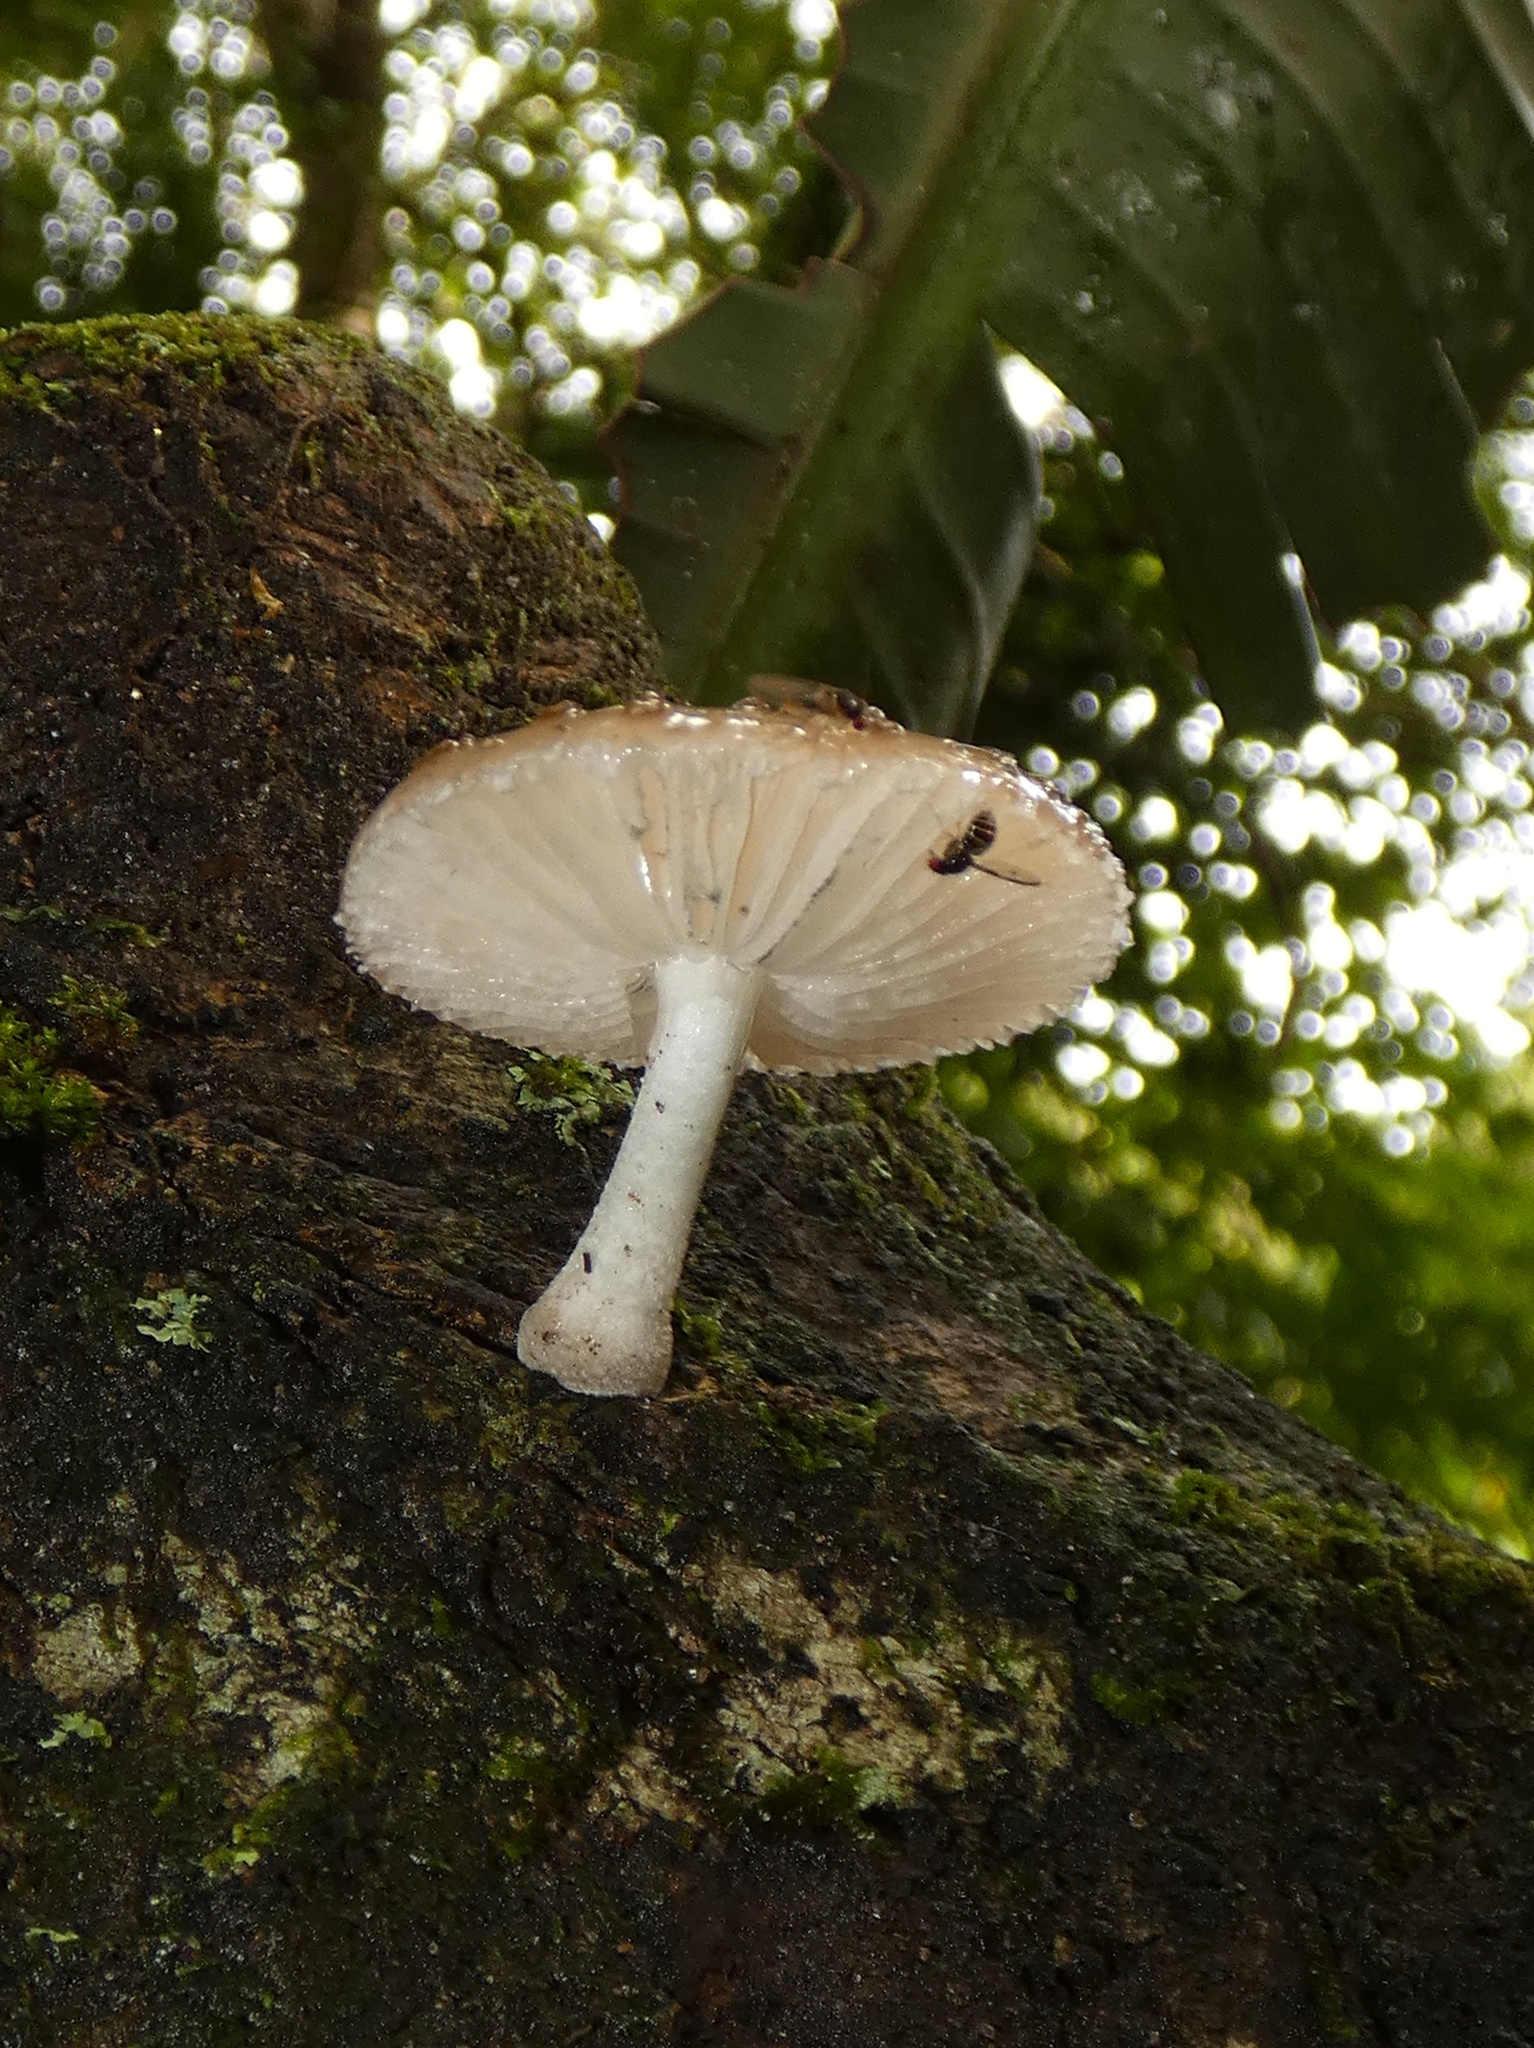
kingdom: Fungi
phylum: Basidiomycota
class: Agaricomycetes
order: Agaricales
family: Physalacriaceae
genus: Oudemansiella
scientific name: Oudemansiella canarii
